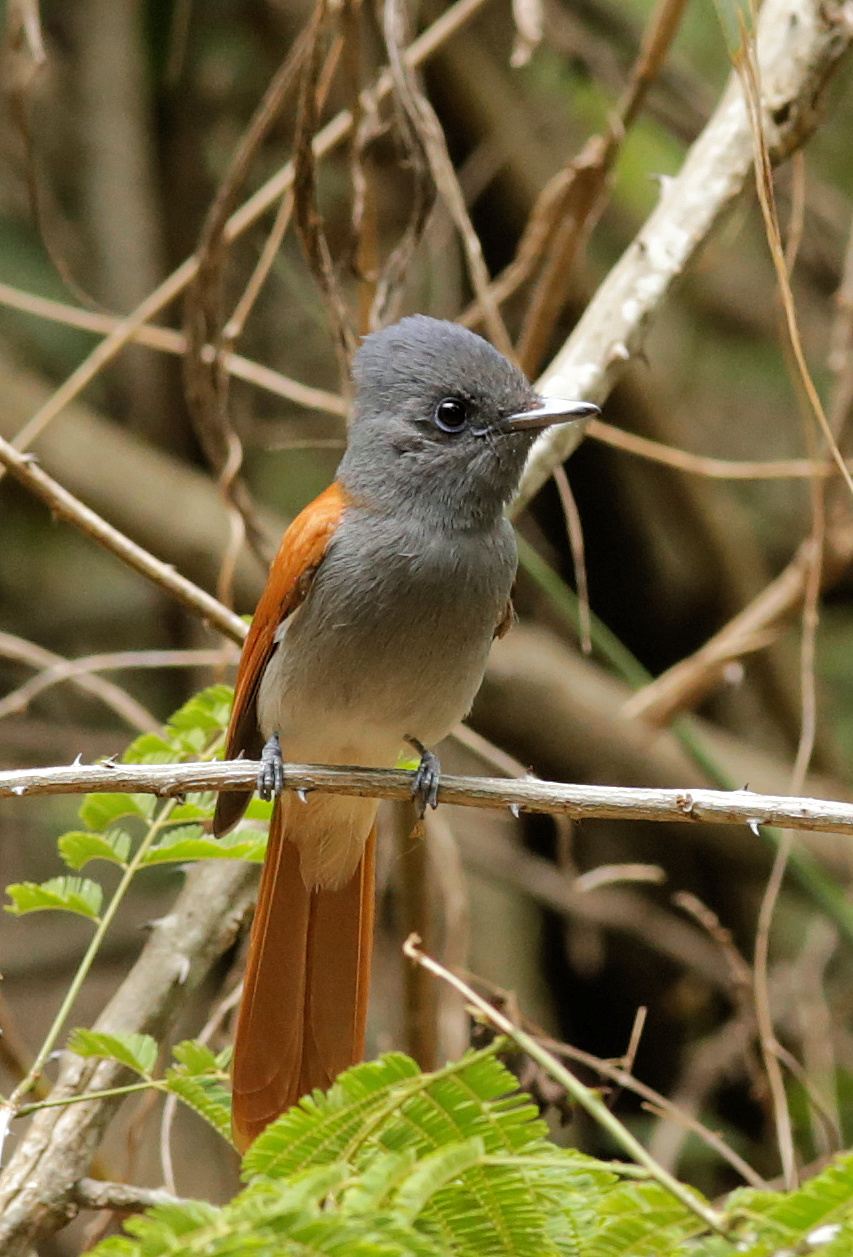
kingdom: Animalia
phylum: Chordata
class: Aves
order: Passeriformes
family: Monarchidae
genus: Terpsiphone
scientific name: Terpsiphone viridis
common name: African paradise flycatcher
